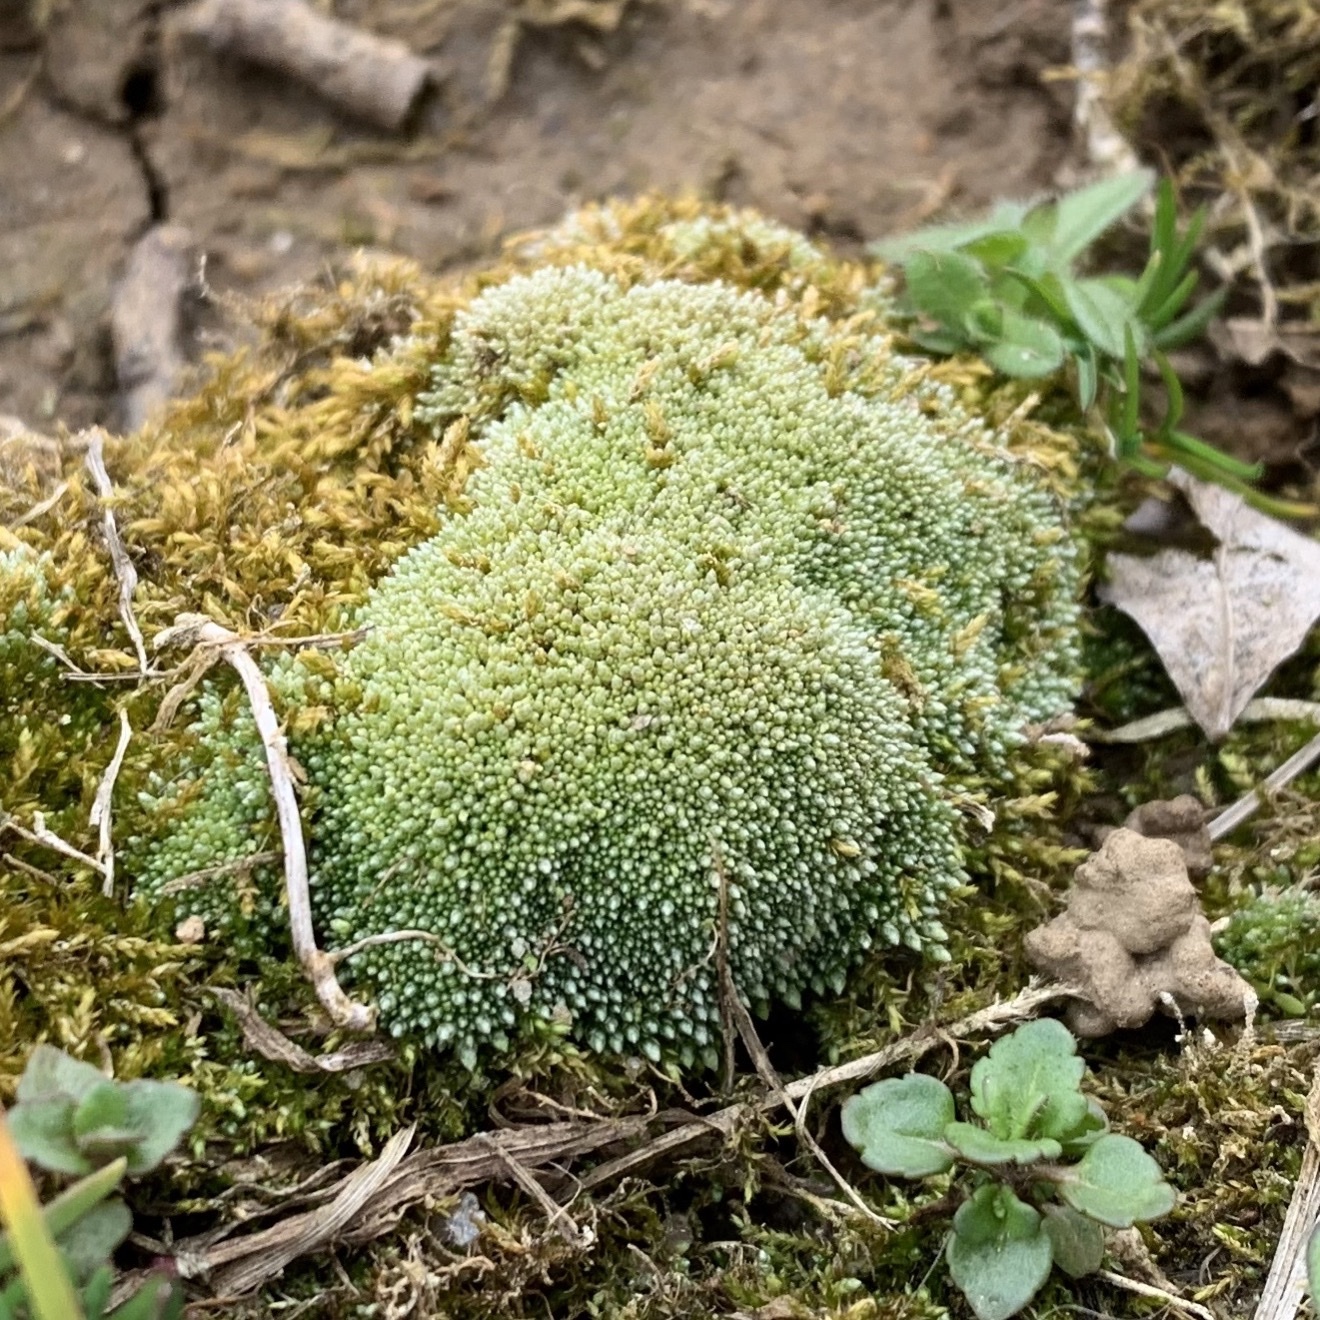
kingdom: Plantae
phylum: Bryophyta
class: Bryopsida
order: Bryales
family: Bryaceae
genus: Bryum
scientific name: Bryum argenteum
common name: Silver-moss
